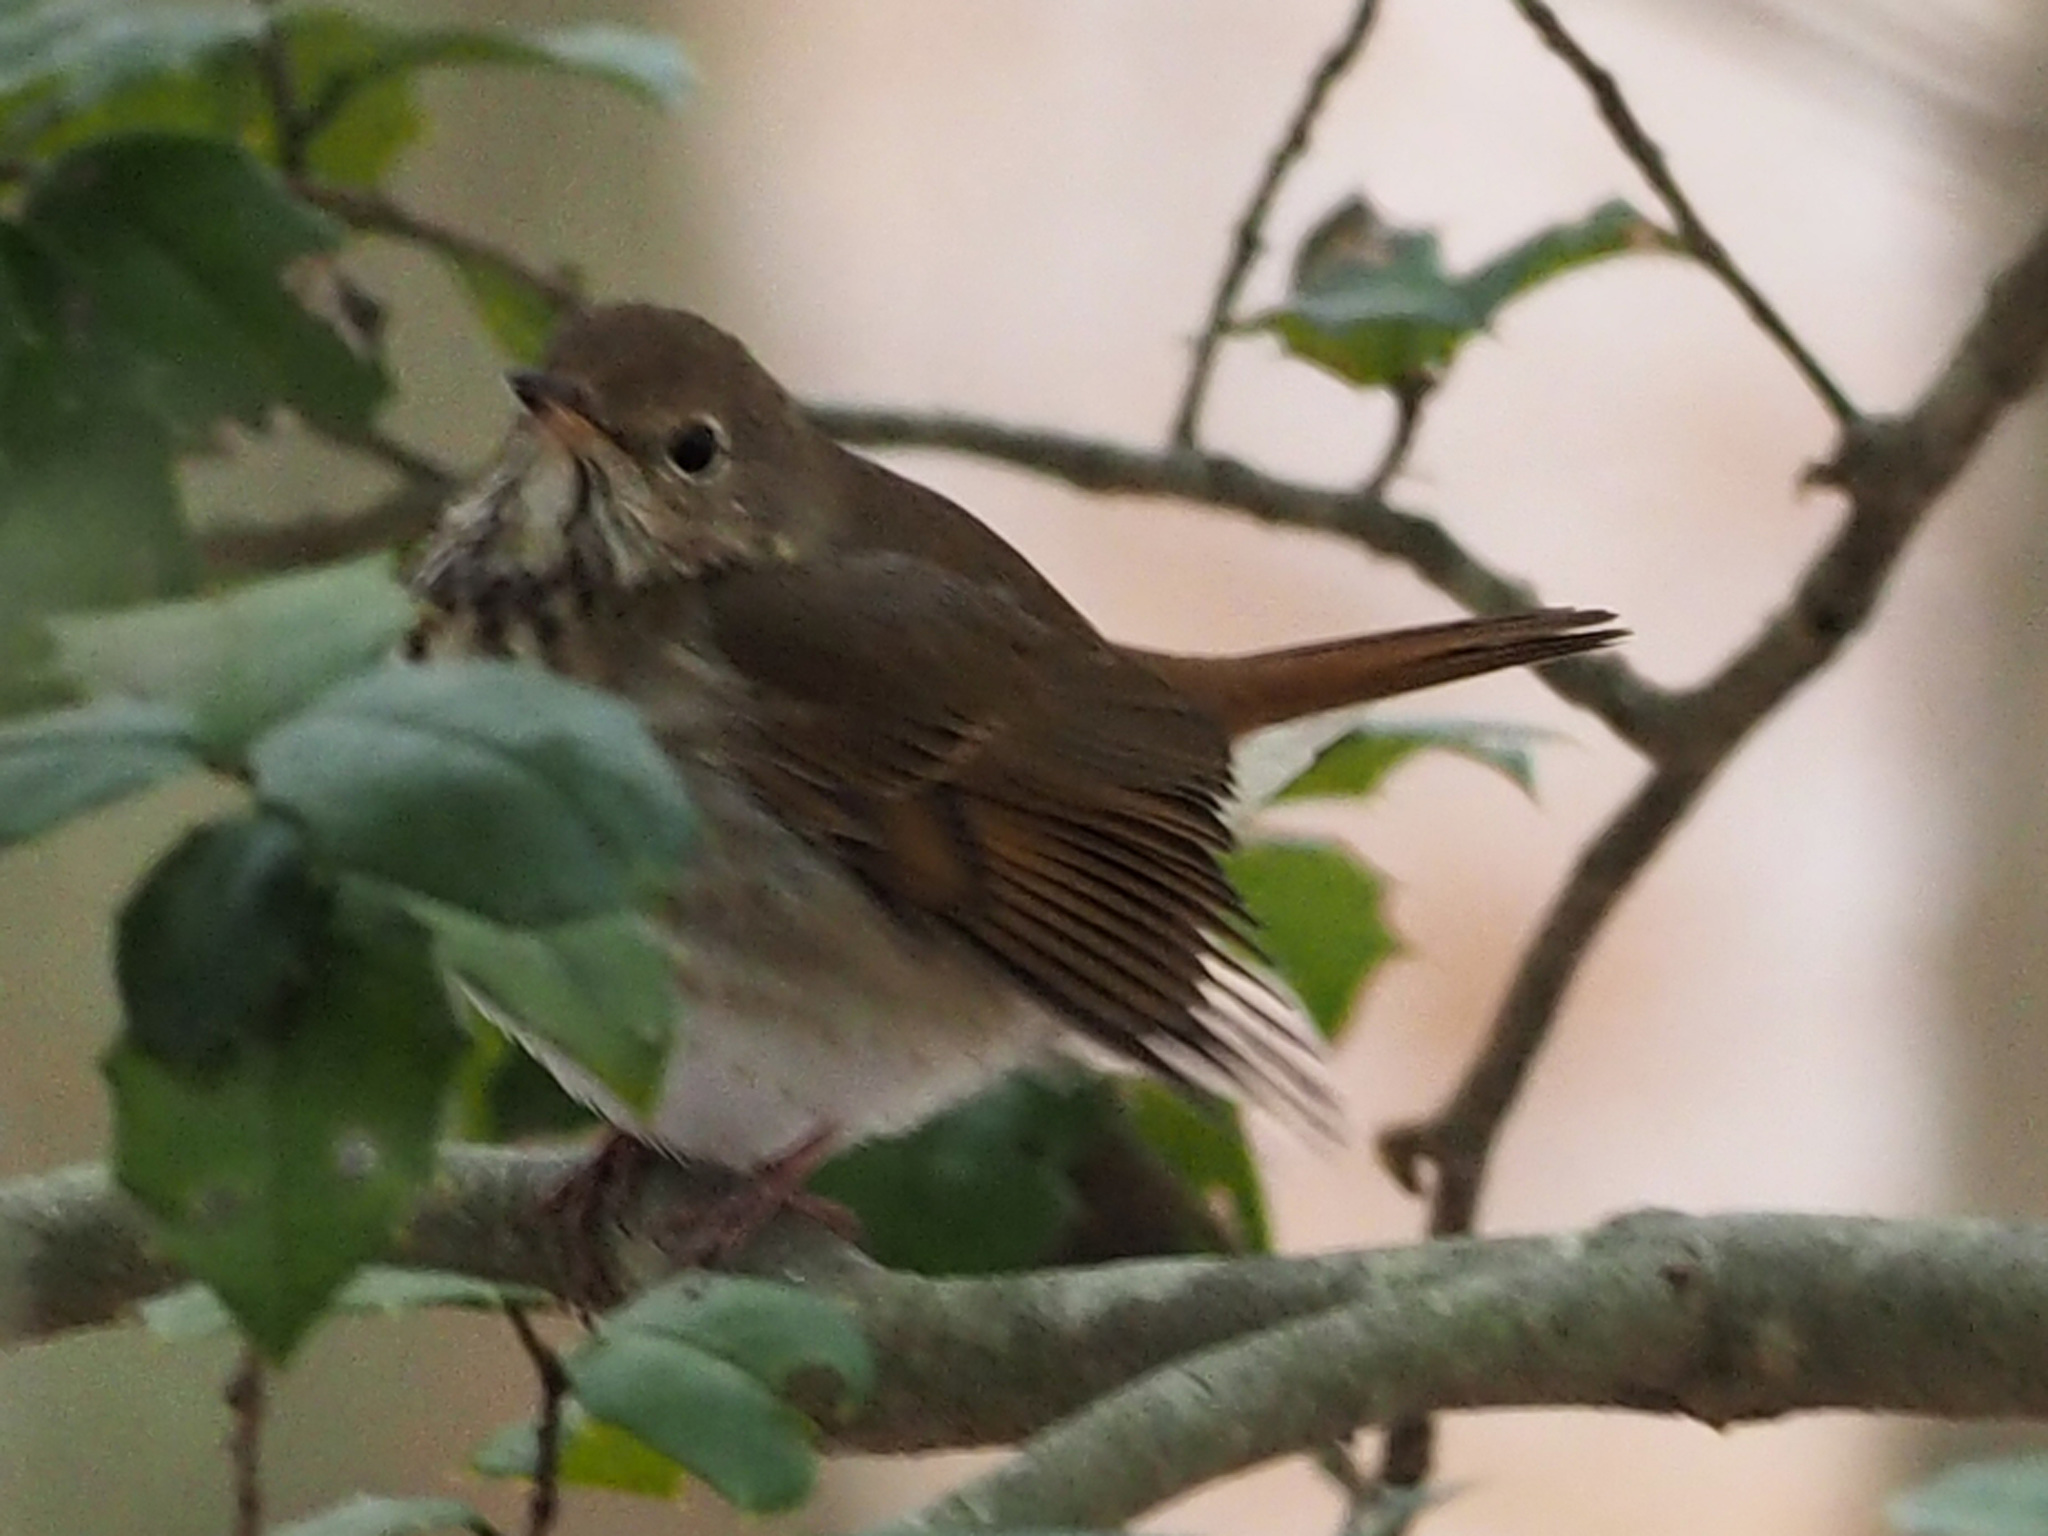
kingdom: Animalia
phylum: Chordata
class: Aves
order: Passeriformes
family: Turdidae
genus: Catharus
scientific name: Catharus guttatus
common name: Hermit thrush
